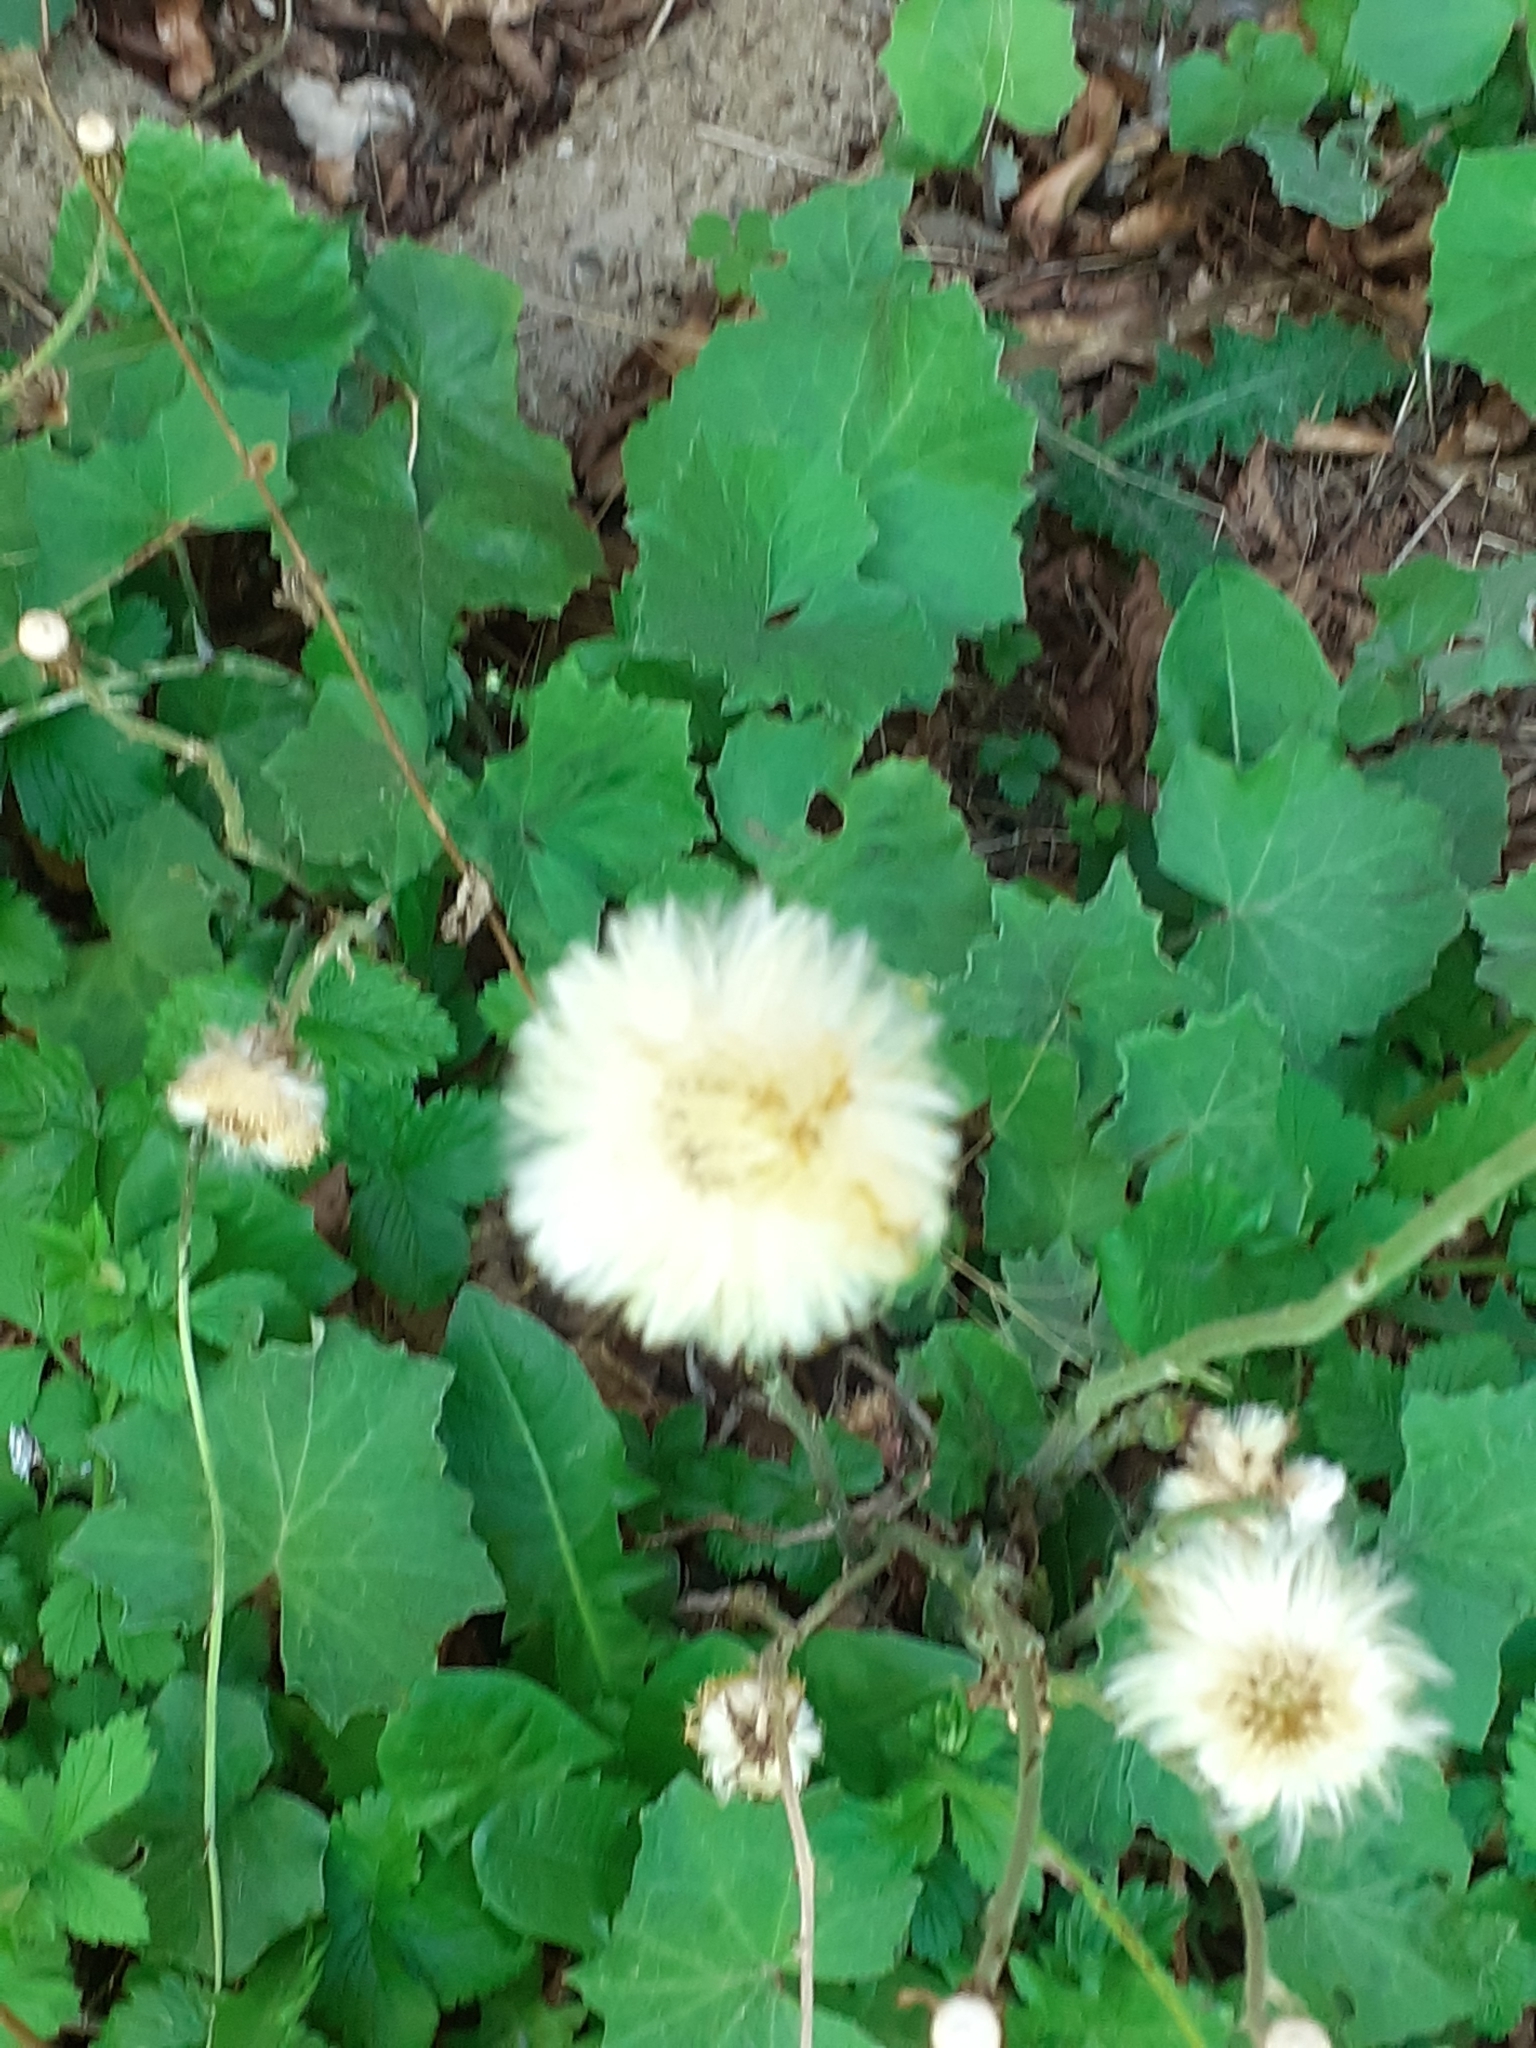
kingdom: Plantae
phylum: Tracheophyta
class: Magnoliopsida
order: Asterales
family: Asteraceae
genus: Tussilago
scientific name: Tussilago farfara
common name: Coltsfoot
